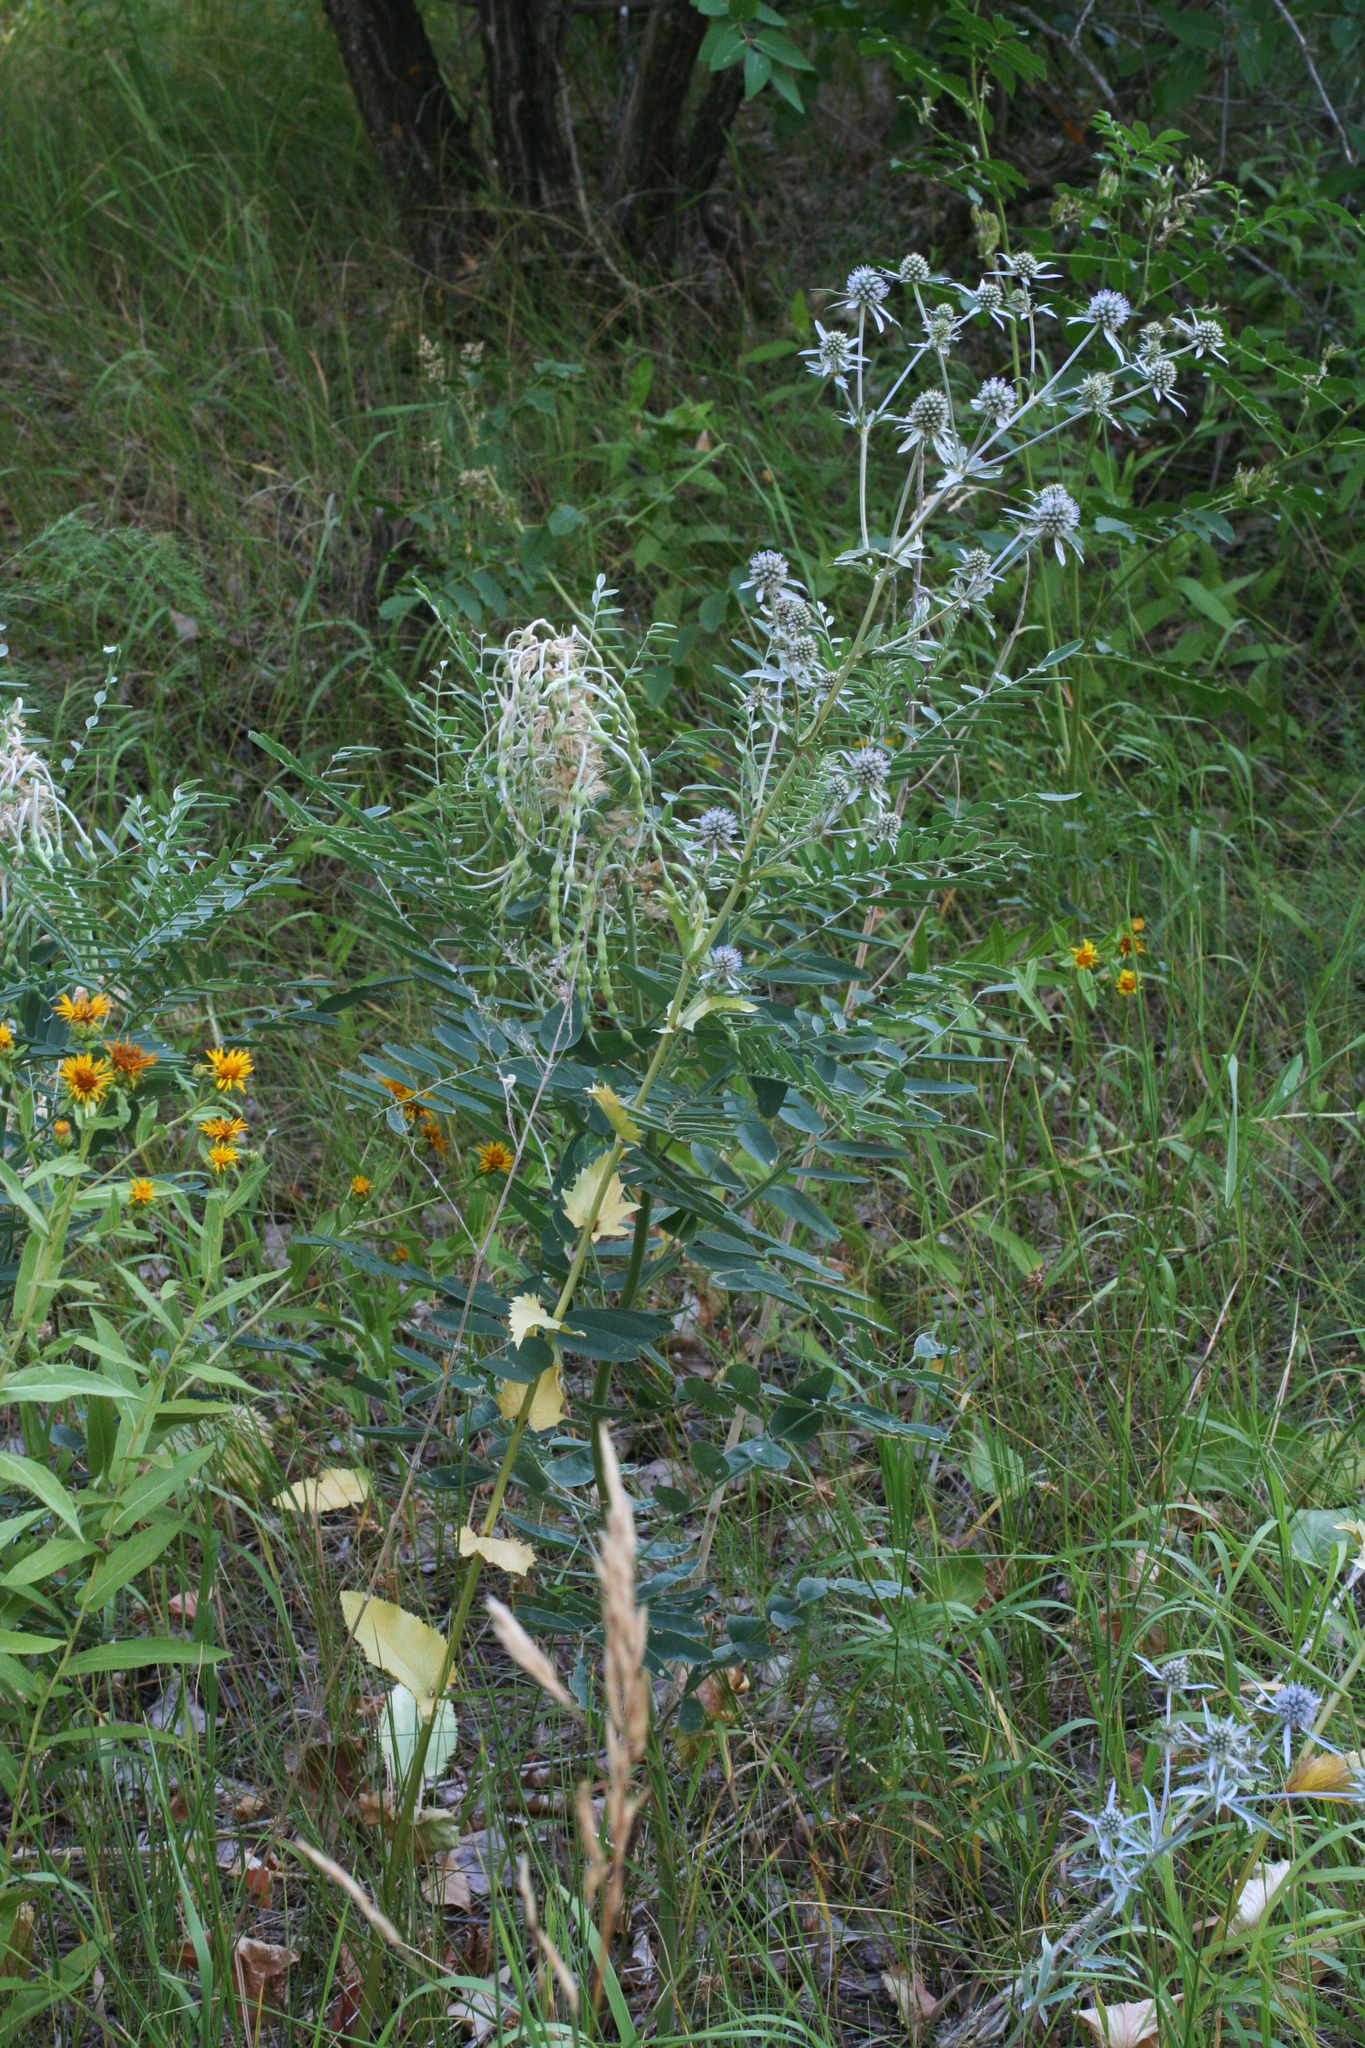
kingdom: Plantae
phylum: Tracheophyta
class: Magnoliopsida
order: Apiales
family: Apiaceae
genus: Eryngium
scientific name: Eryngium planum
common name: Blue eryngo
